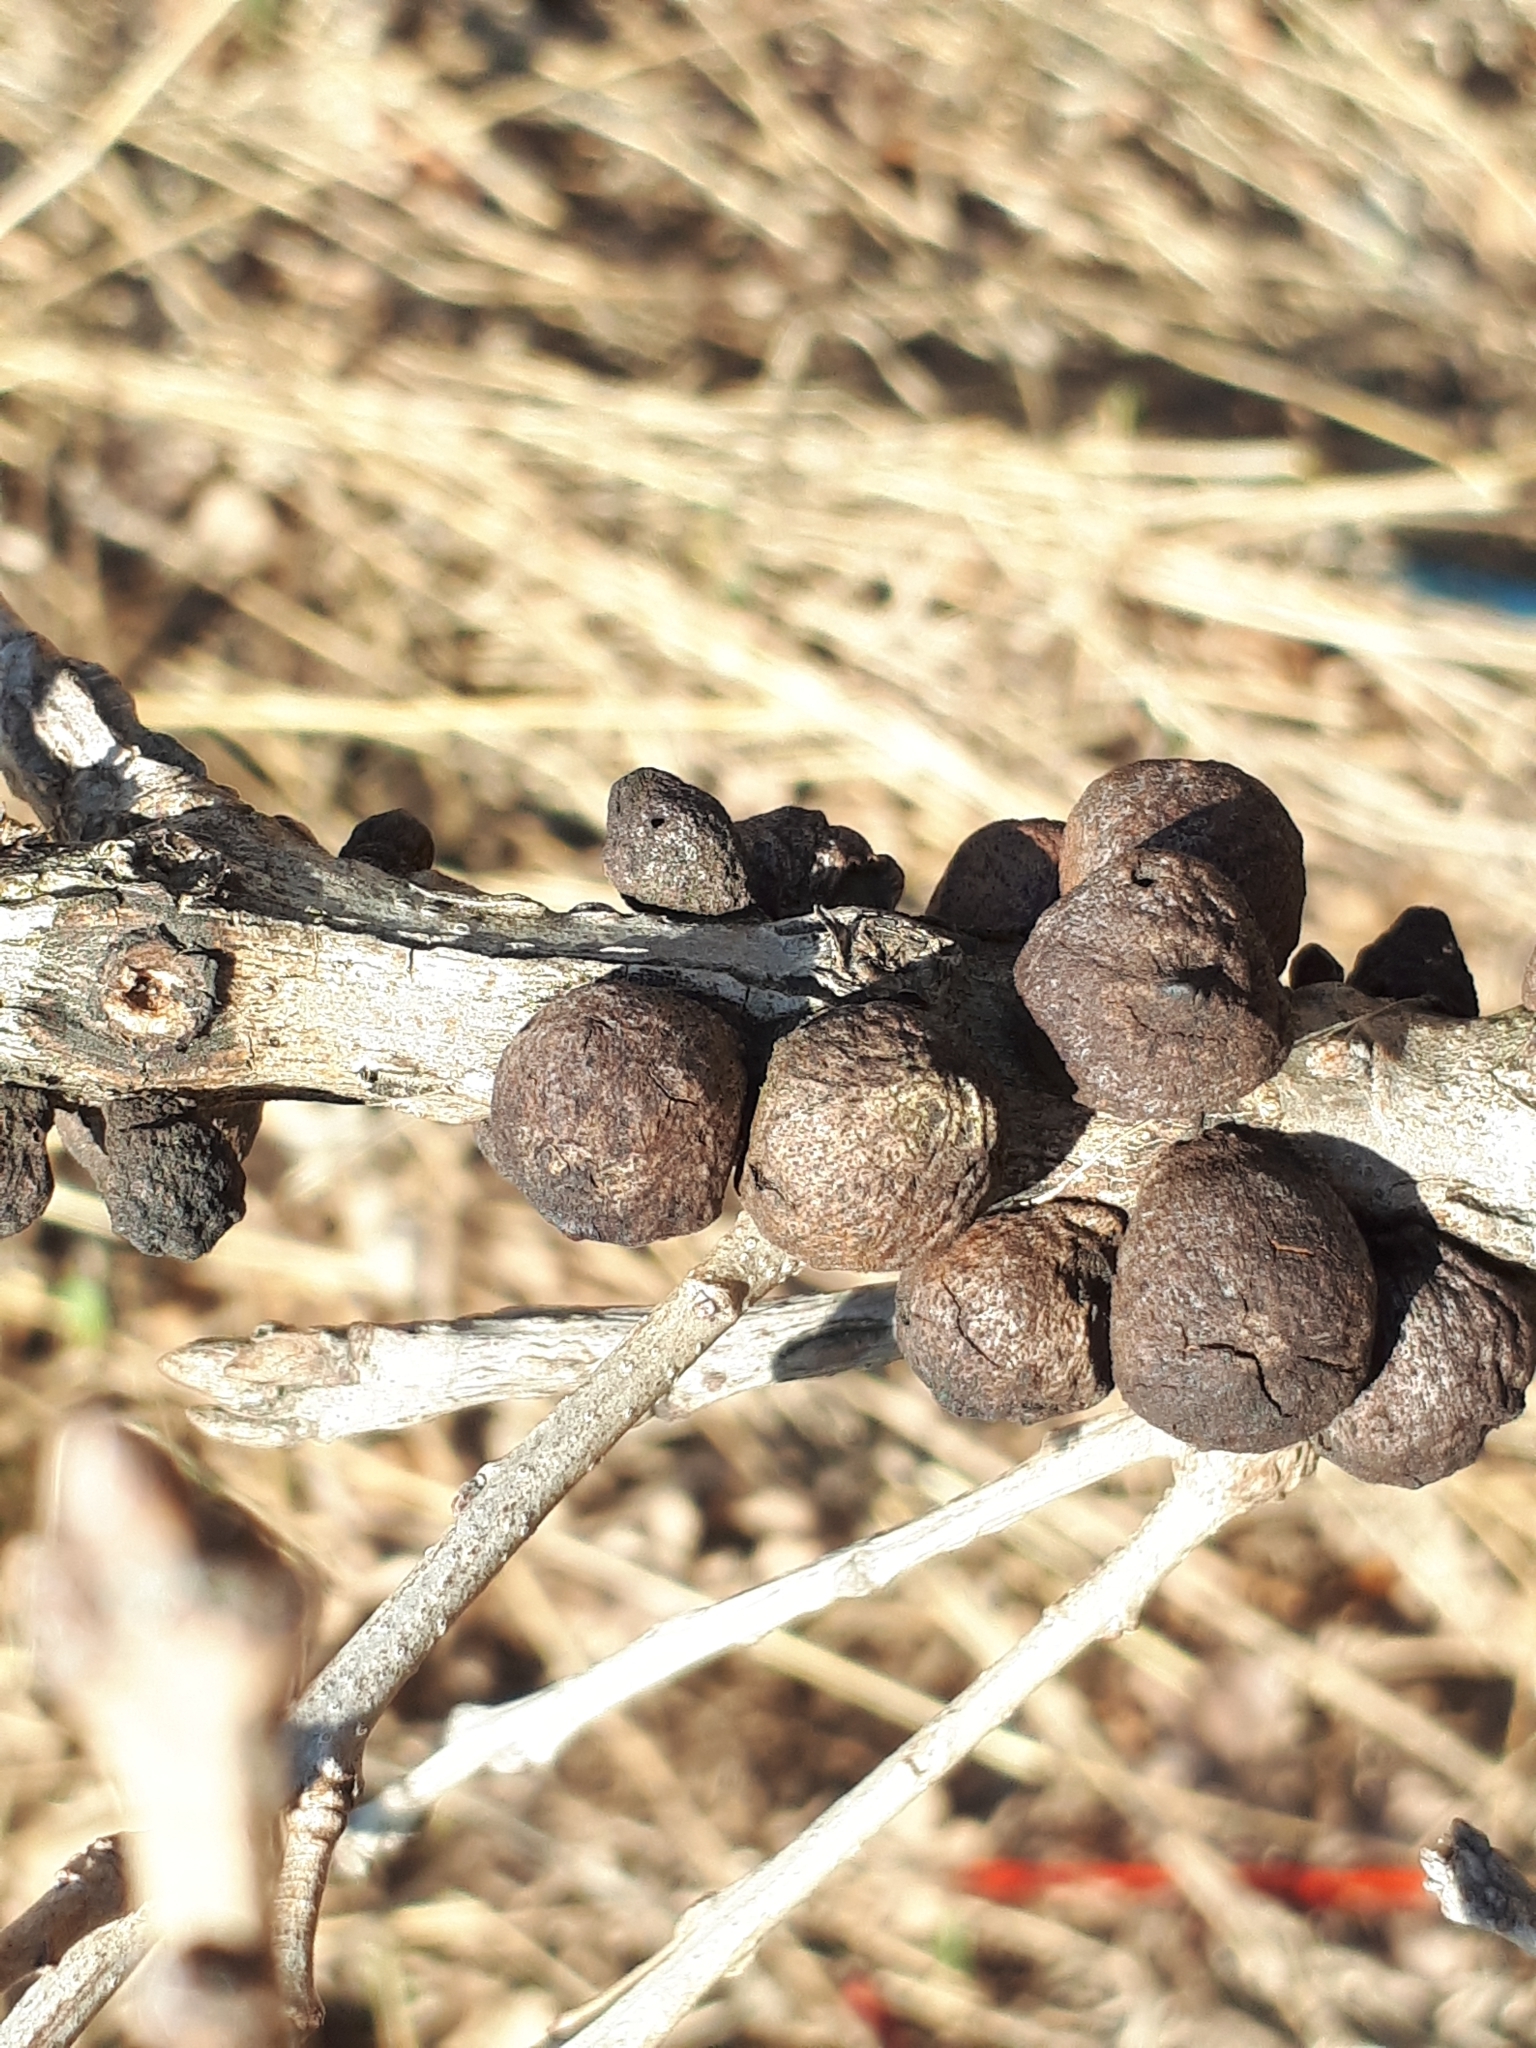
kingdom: Animalia
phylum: Arthropoda
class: Insecta
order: Hymenoptera
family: Cynipidae
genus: Disholcaspis
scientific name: Disholcaspis
